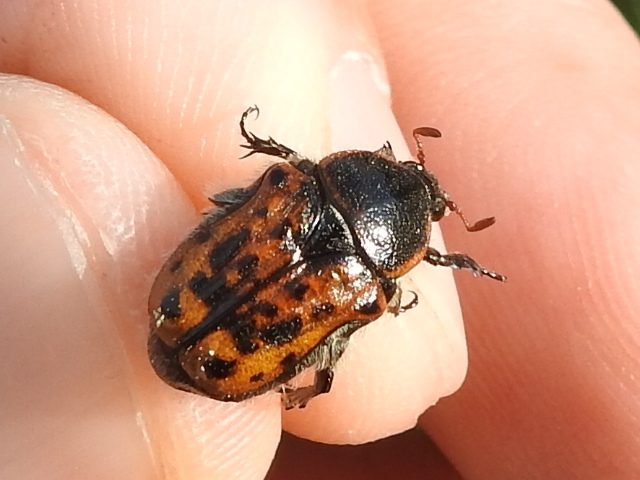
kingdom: Animalia
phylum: Arthropoda
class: Insecta
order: Coleoptera
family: Scarabaeidae
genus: Euphoria
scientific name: Euphoria kernii
